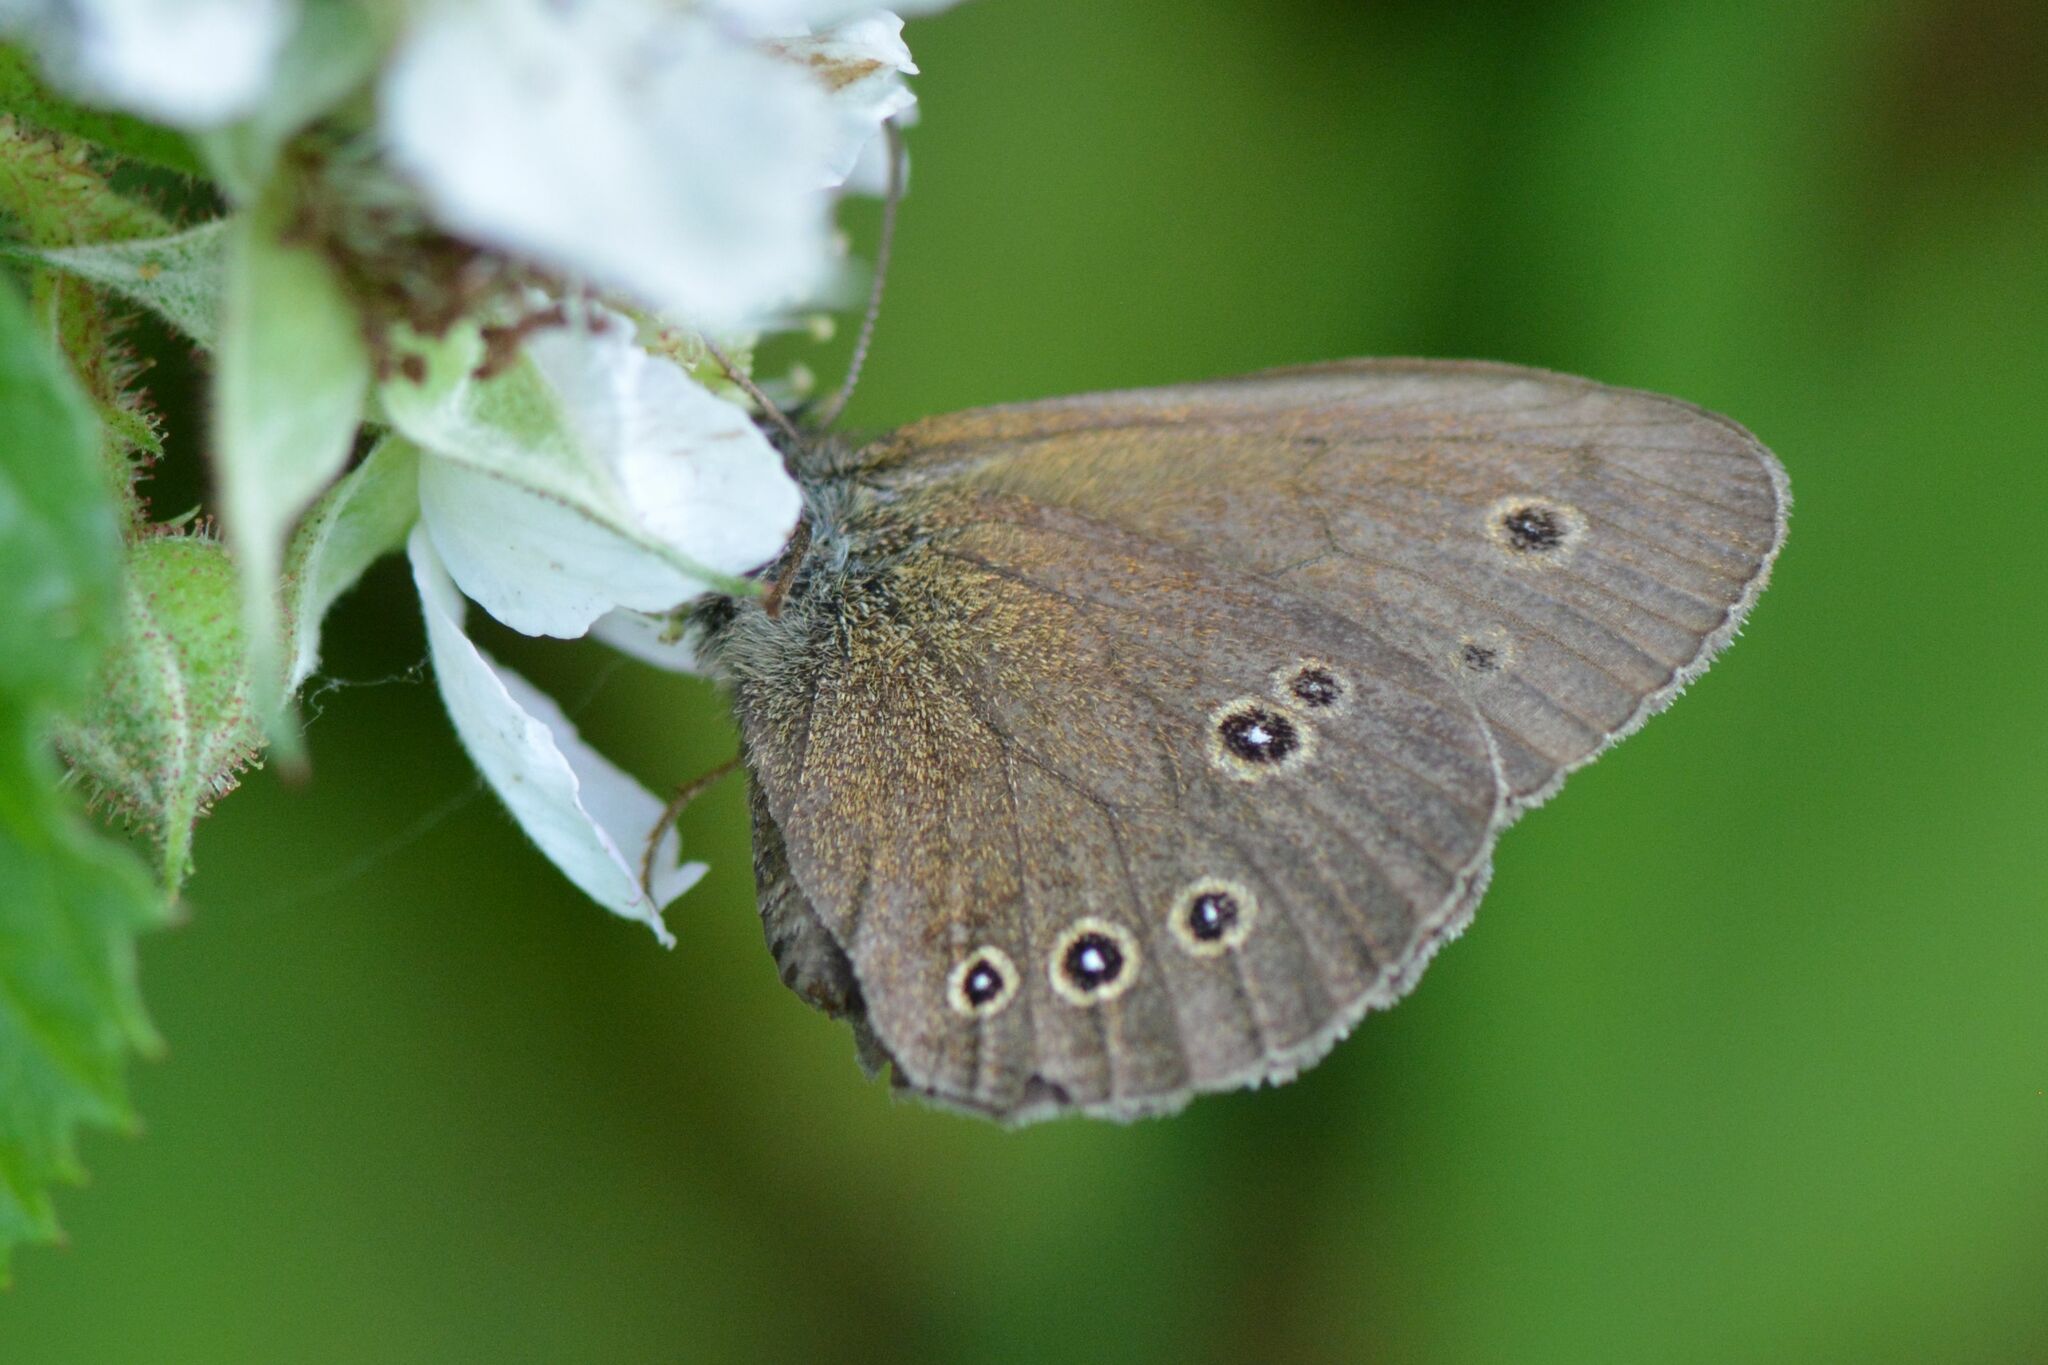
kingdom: Animalia
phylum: Arthropoda
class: Insecta
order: Lepidoptera
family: Nymphalidae
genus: Aphantopus
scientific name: Aphantopus hyperantus
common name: Ringlet
